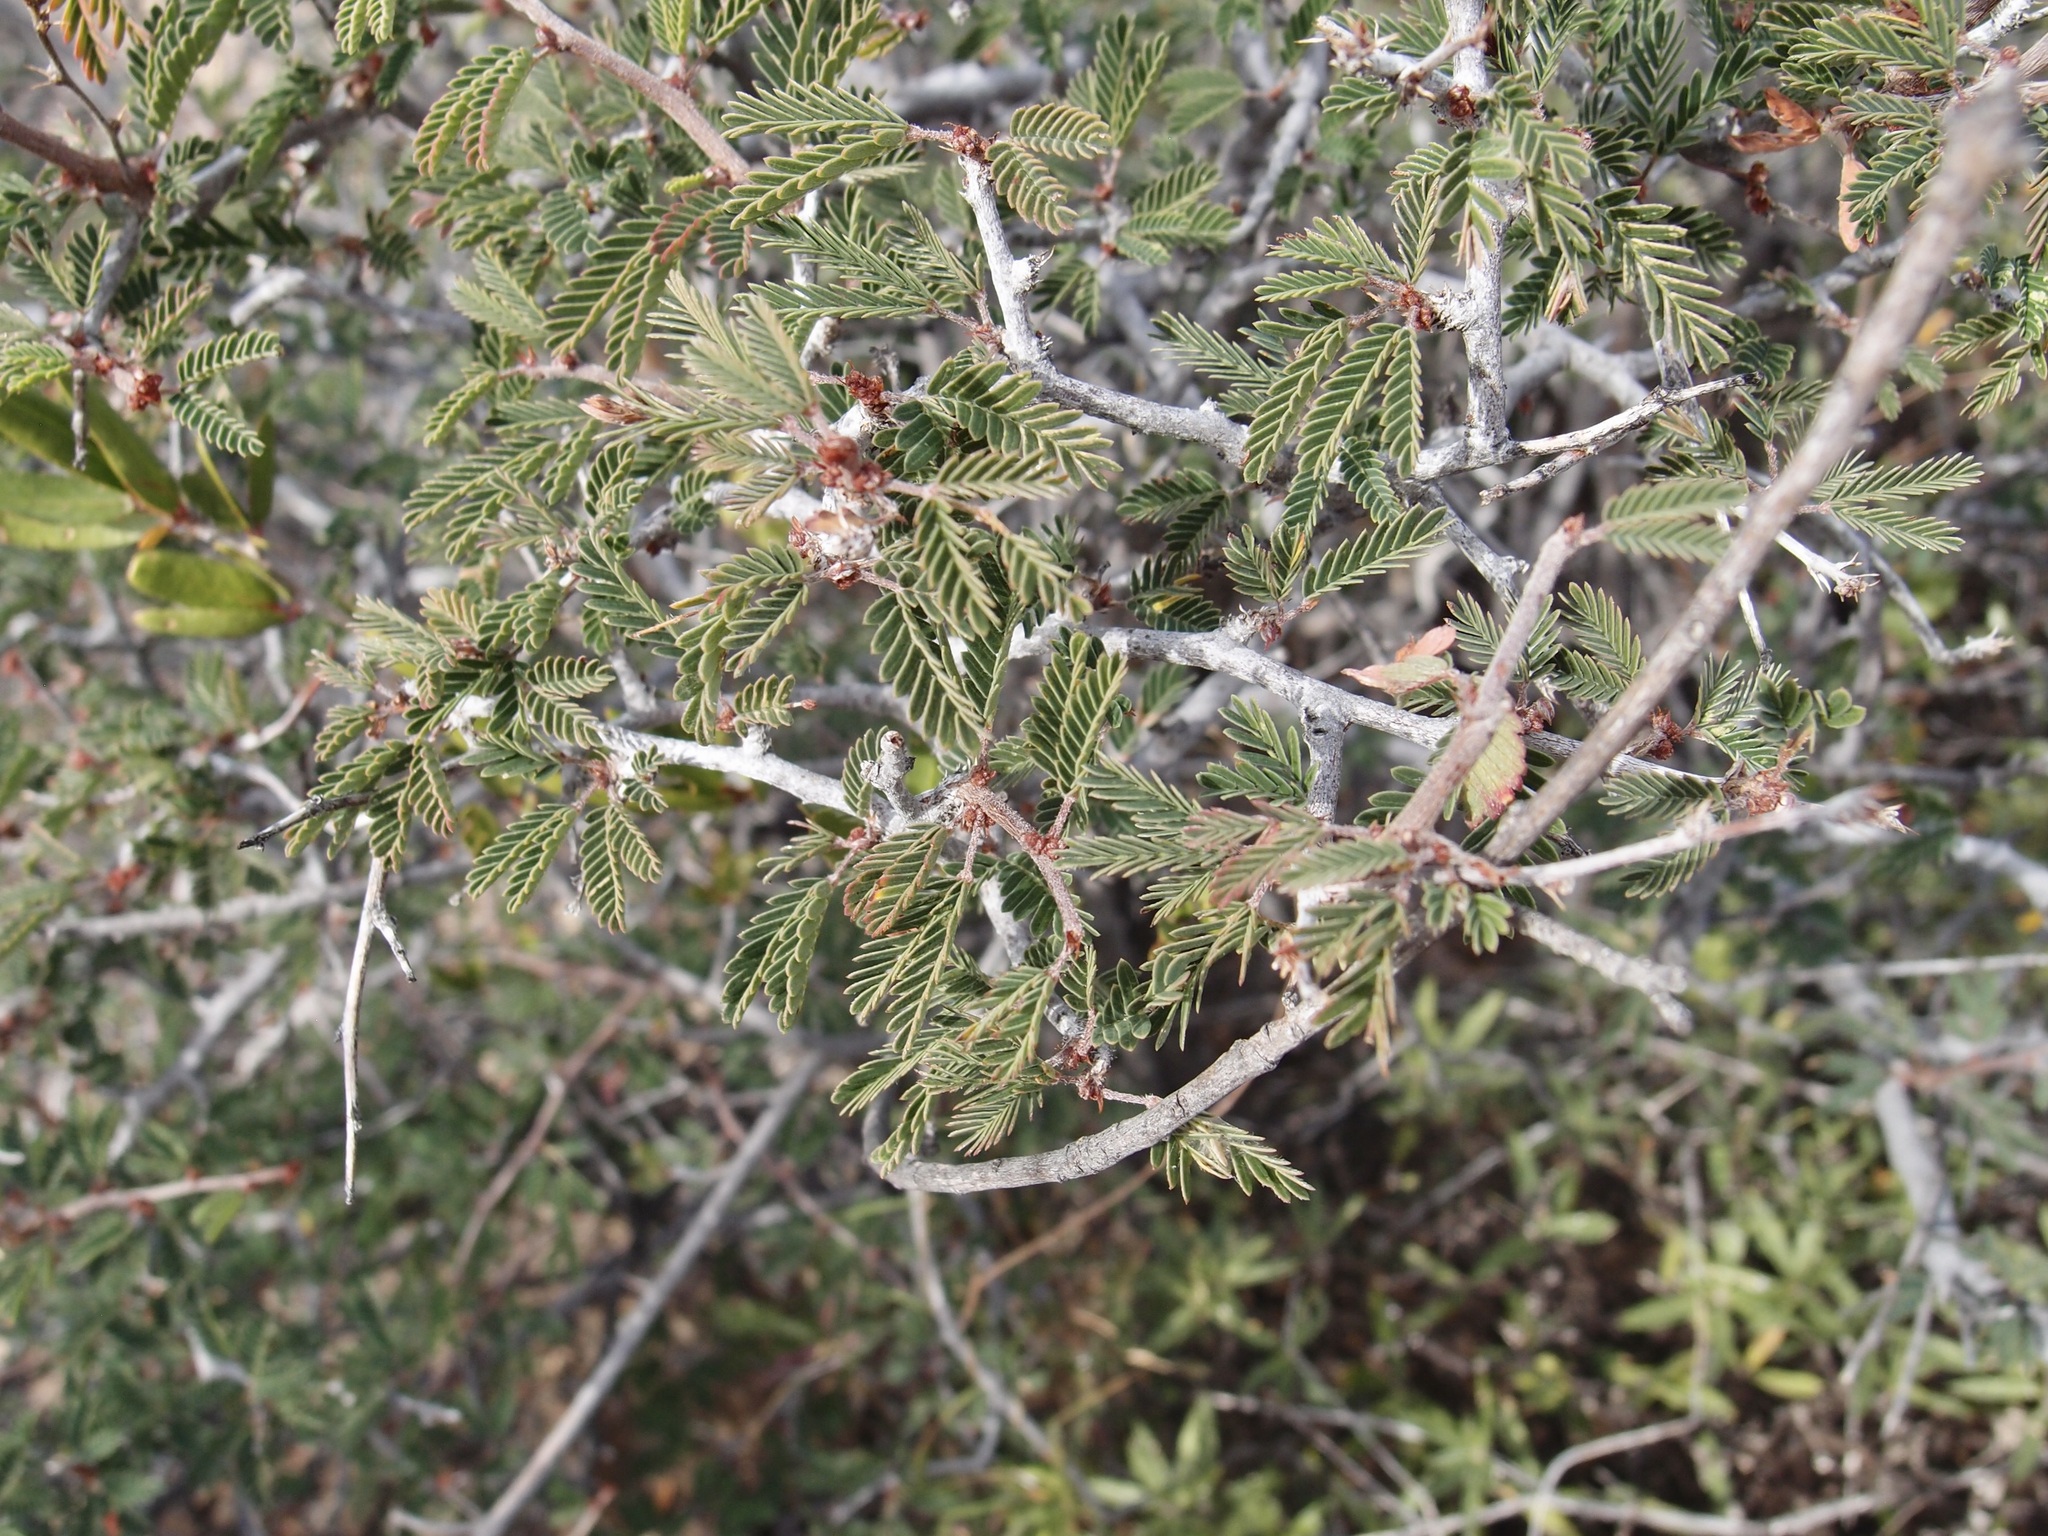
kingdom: Plantae
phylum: Tracheophyta
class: Magnoliopsida
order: Fabales
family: Fabaceae
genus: Calliandra
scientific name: Calliandra eriophylla
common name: Fairy-duster
